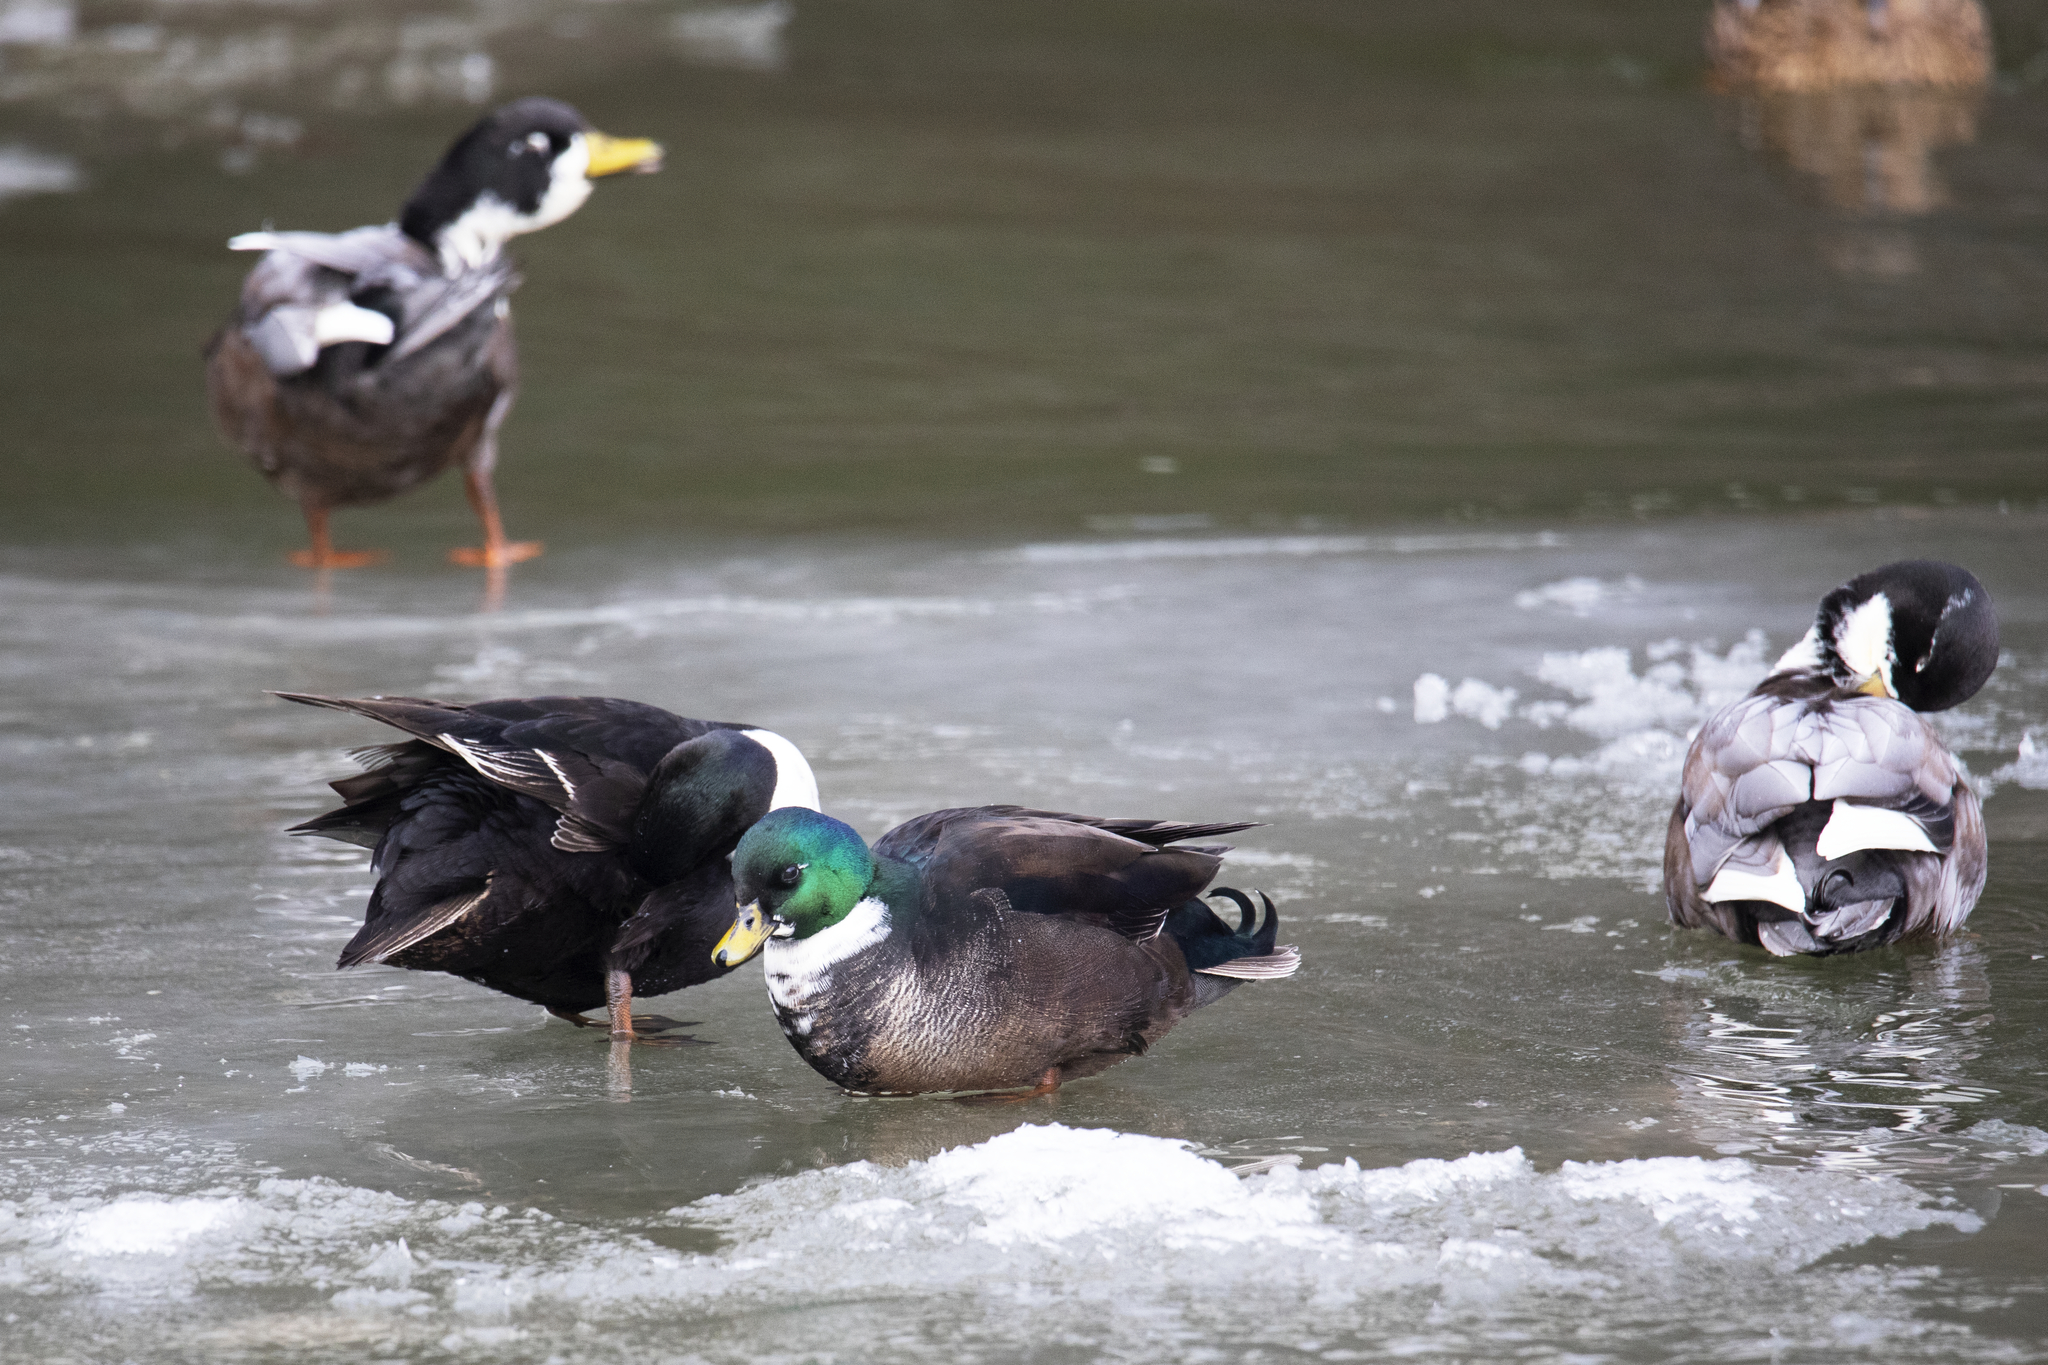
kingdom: Animalia
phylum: Chordata
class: Aves
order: Anseriformes
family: Anatidae
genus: Anas
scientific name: Anas platyrhynchos
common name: Mallard
